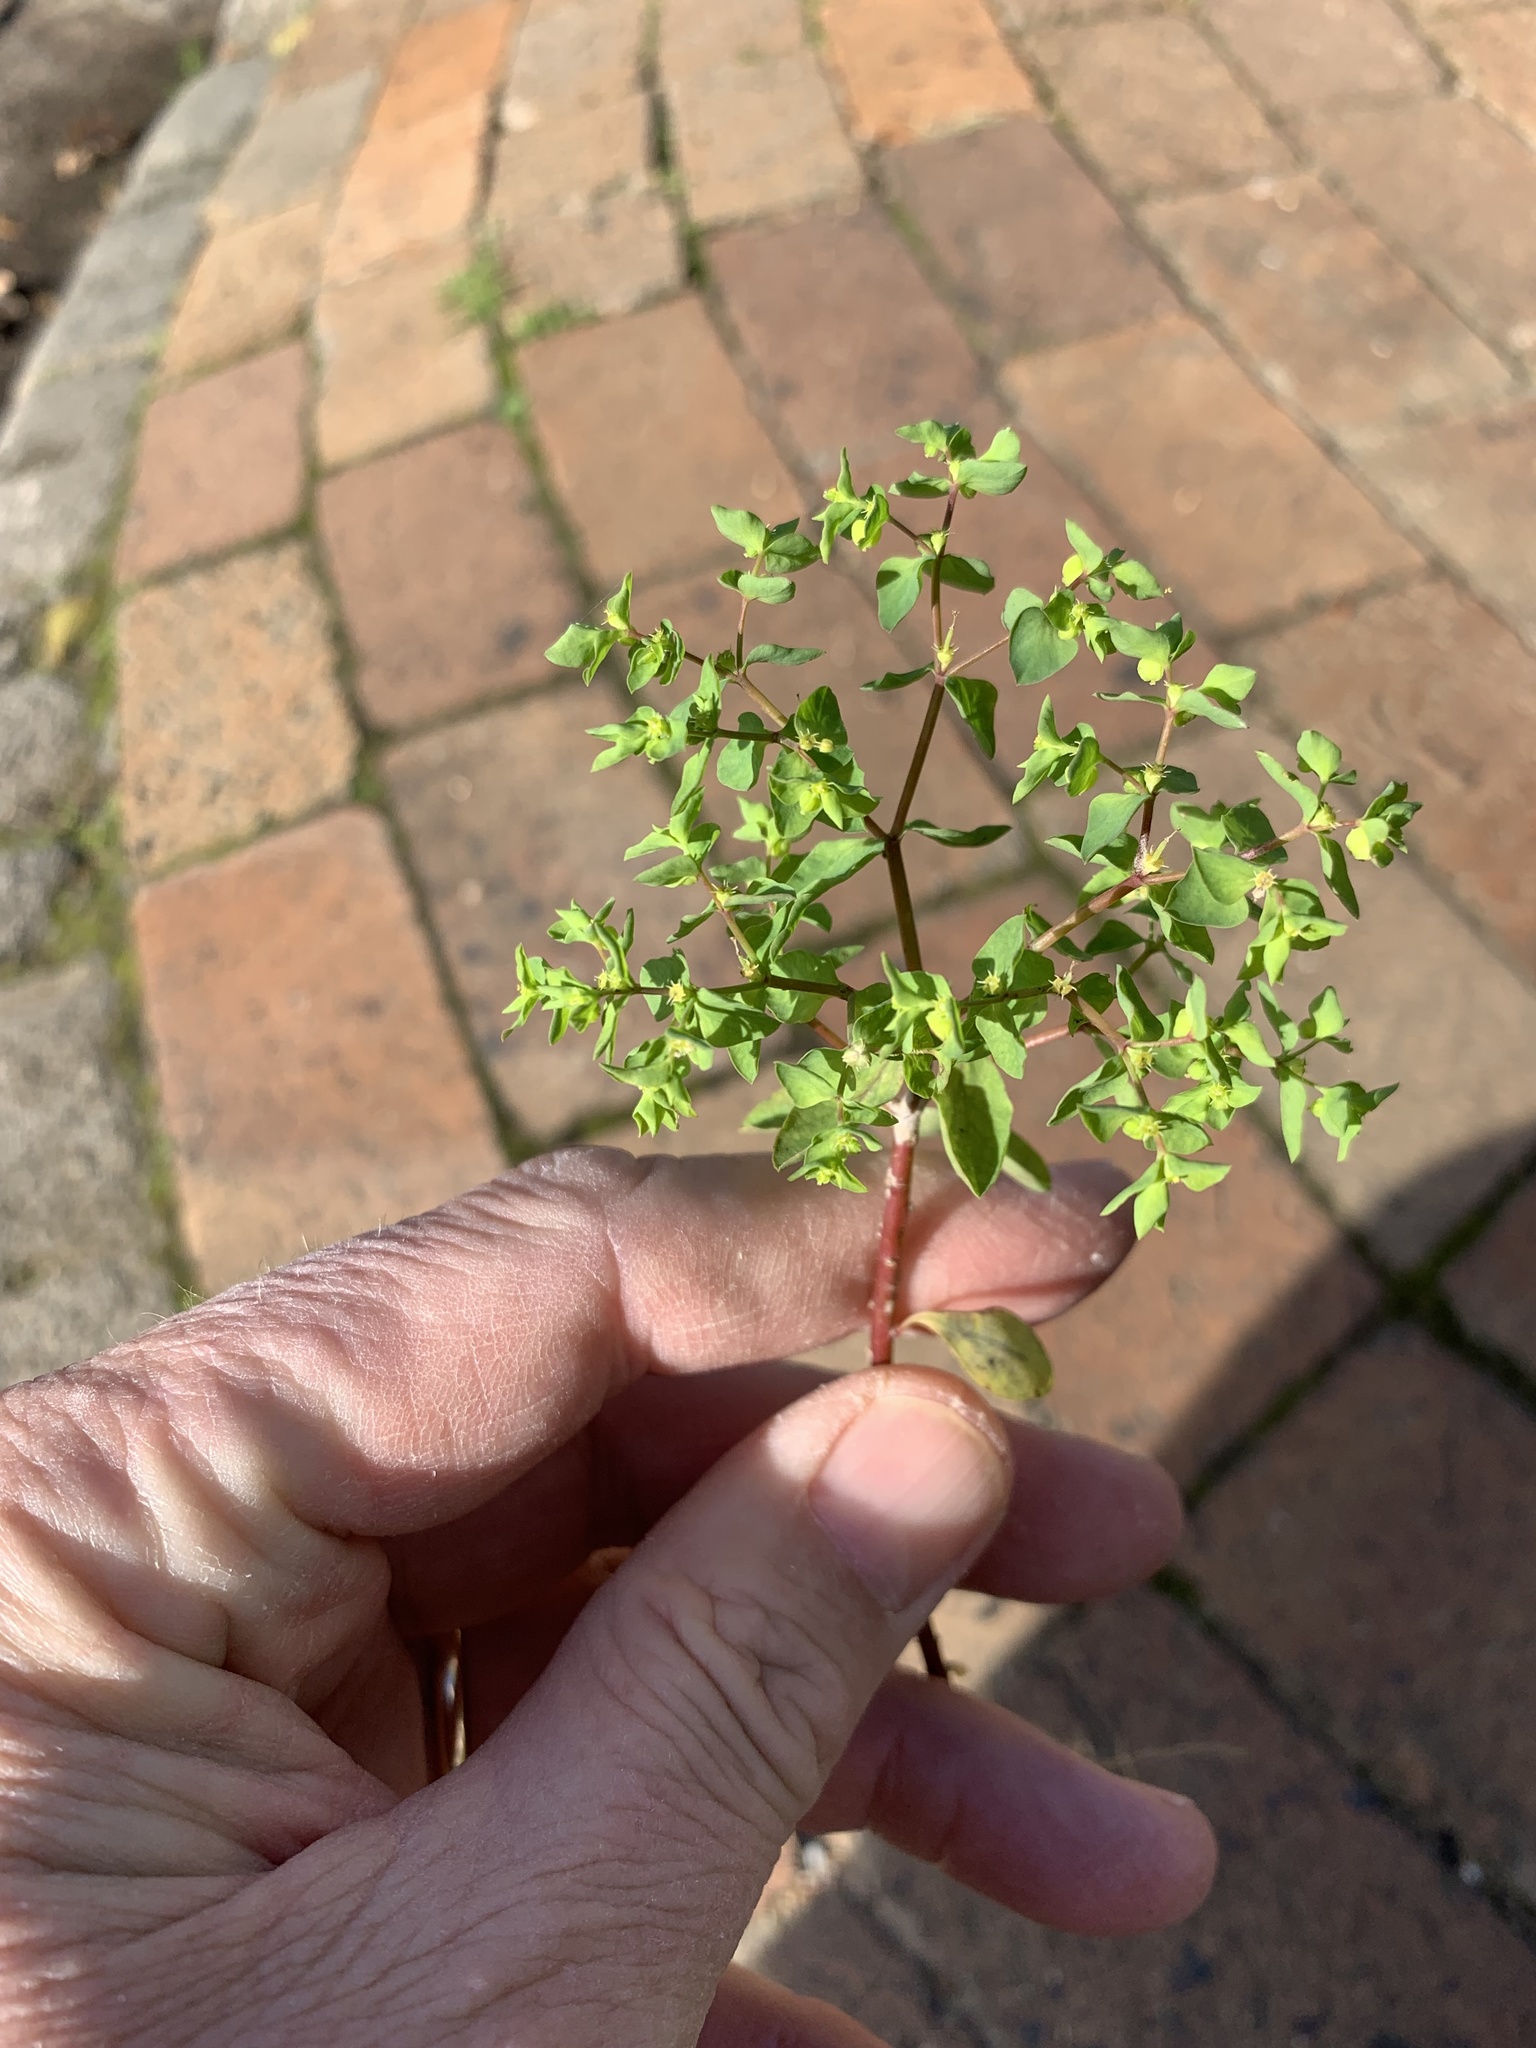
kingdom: Plantae
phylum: Tracheophyta
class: Magnoliopsida
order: Malpighiales
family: Euphorbiaceae
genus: Euphorbia
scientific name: Euphorbia peplus
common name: Petty spurge
